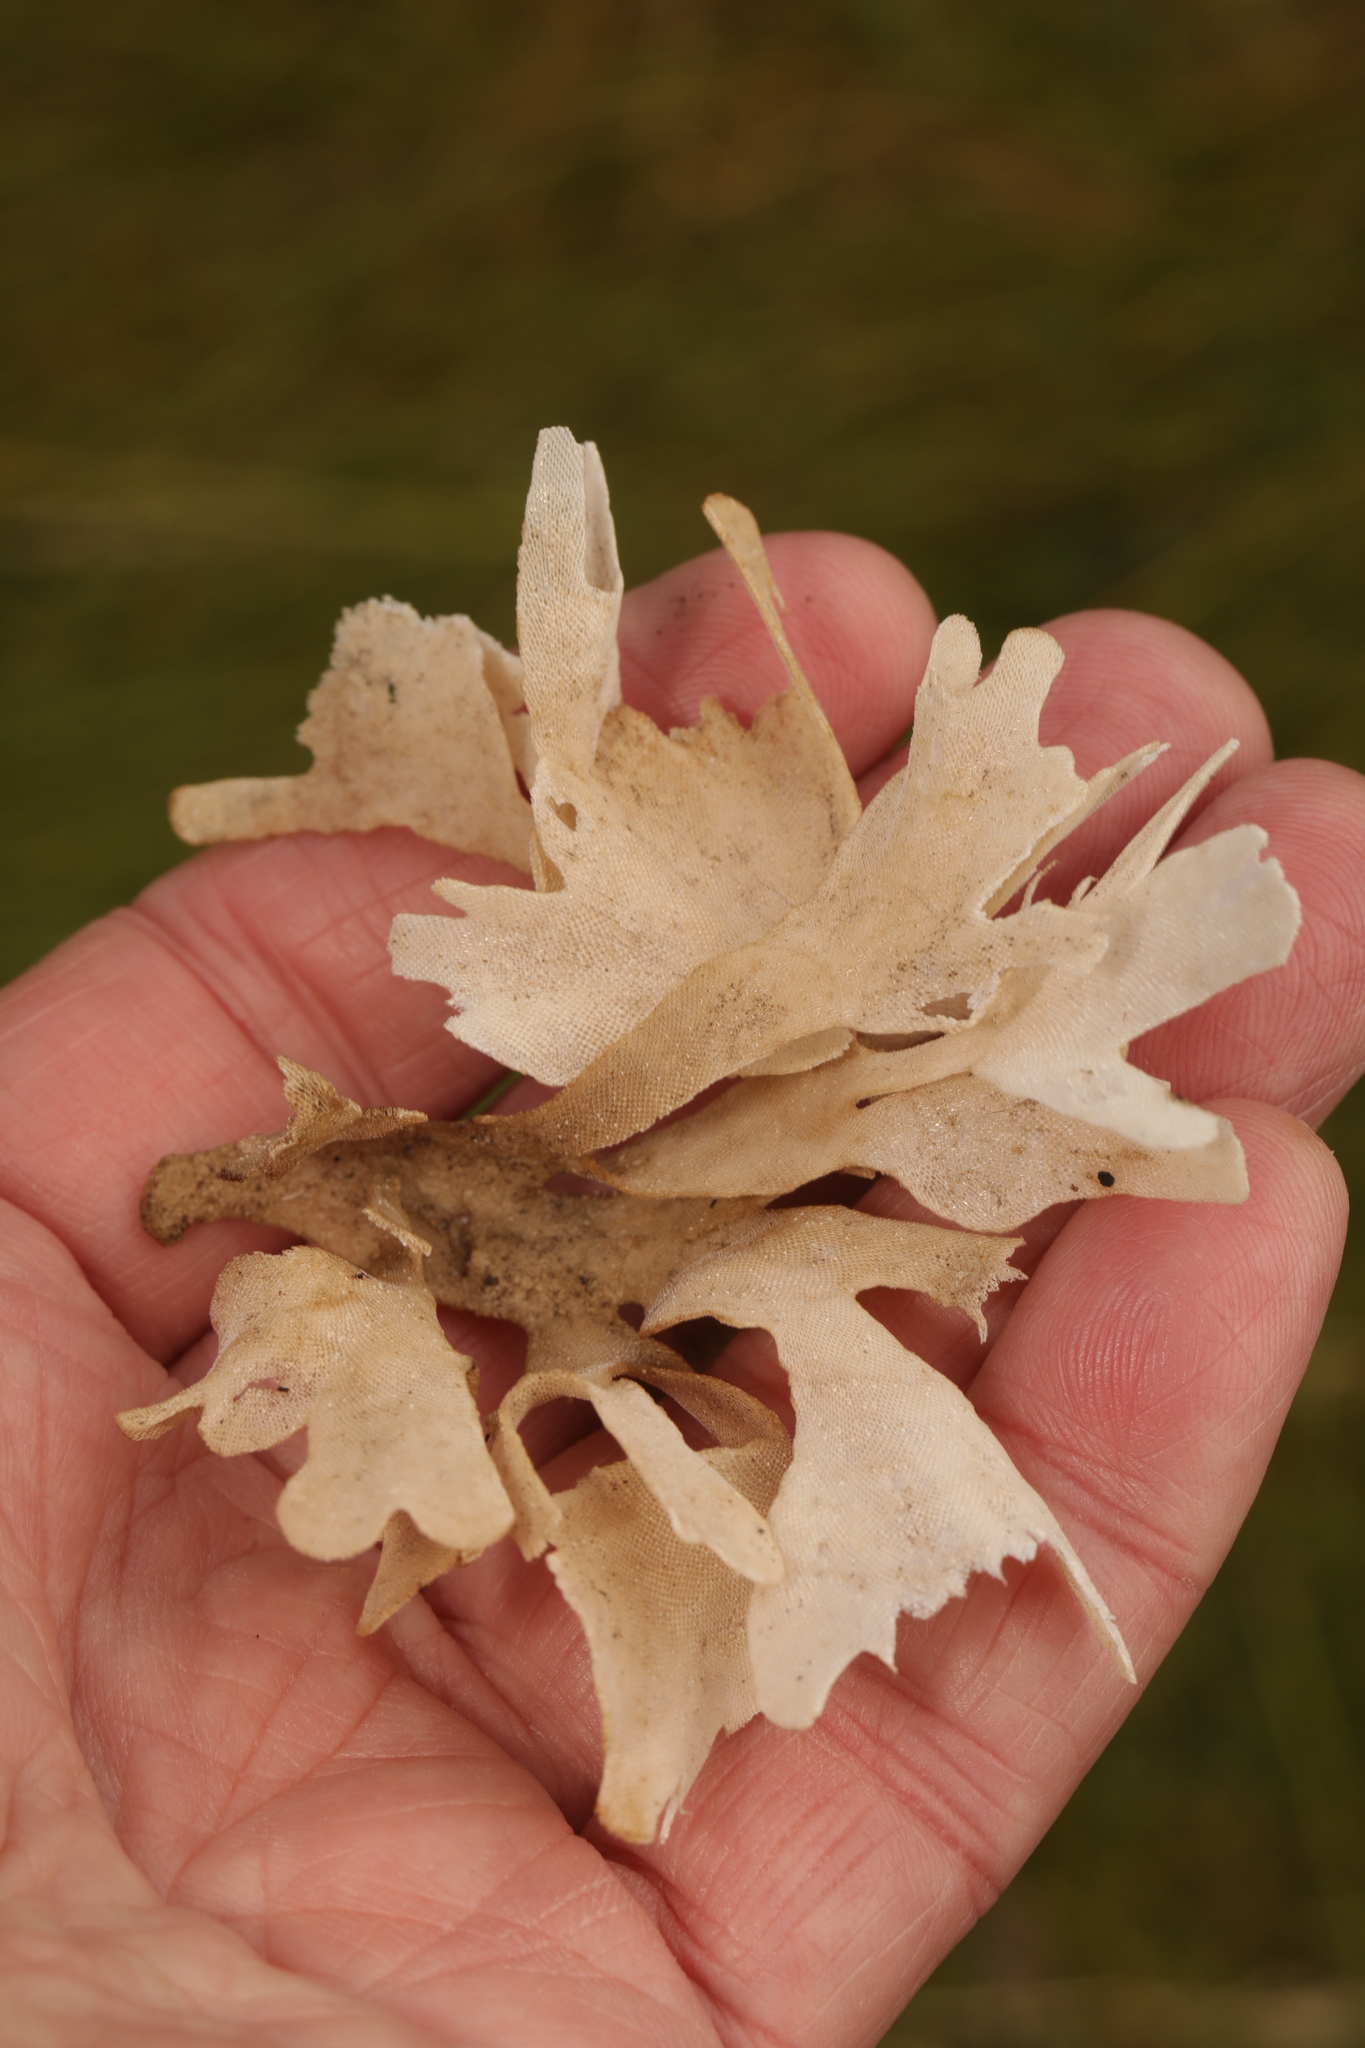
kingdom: Animalia
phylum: Bryozoa
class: Gymnolaemata
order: Cheilostomatida
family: Flustridae
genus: Flustra
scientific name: Flustra foliacea
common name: Hornwrack
